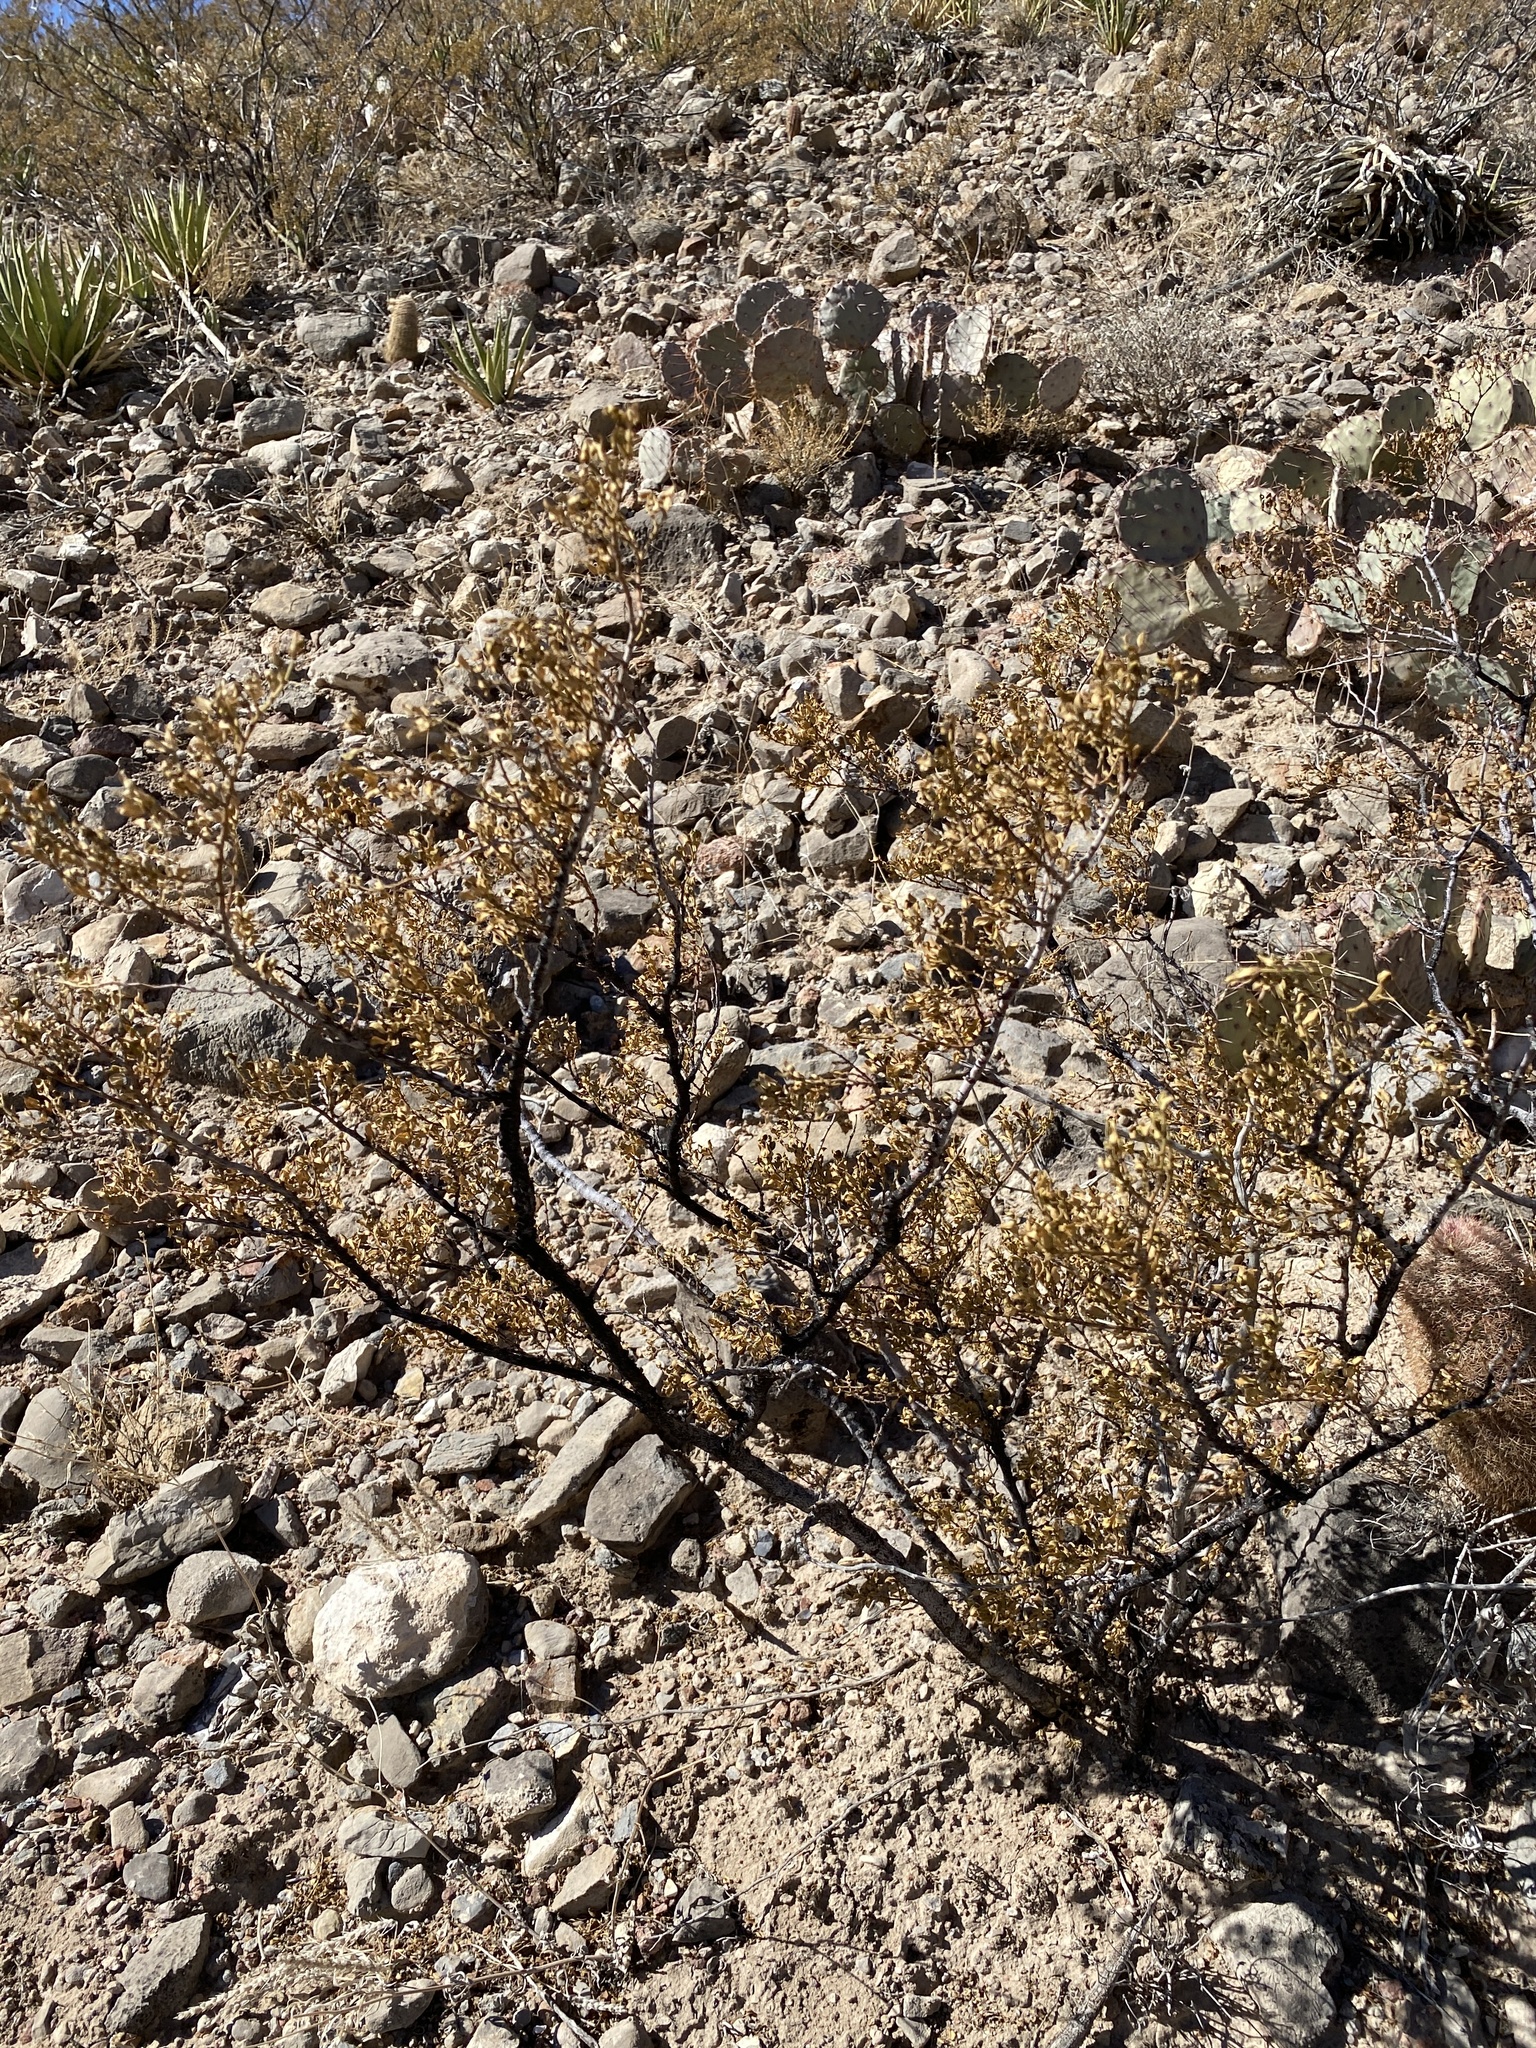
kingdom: Plantae
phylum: Tracheophyta
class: Magnoliopsida
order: Zygophyllales
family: Zygophyllaceae
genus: Larrea
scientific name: Larrea tridentata
